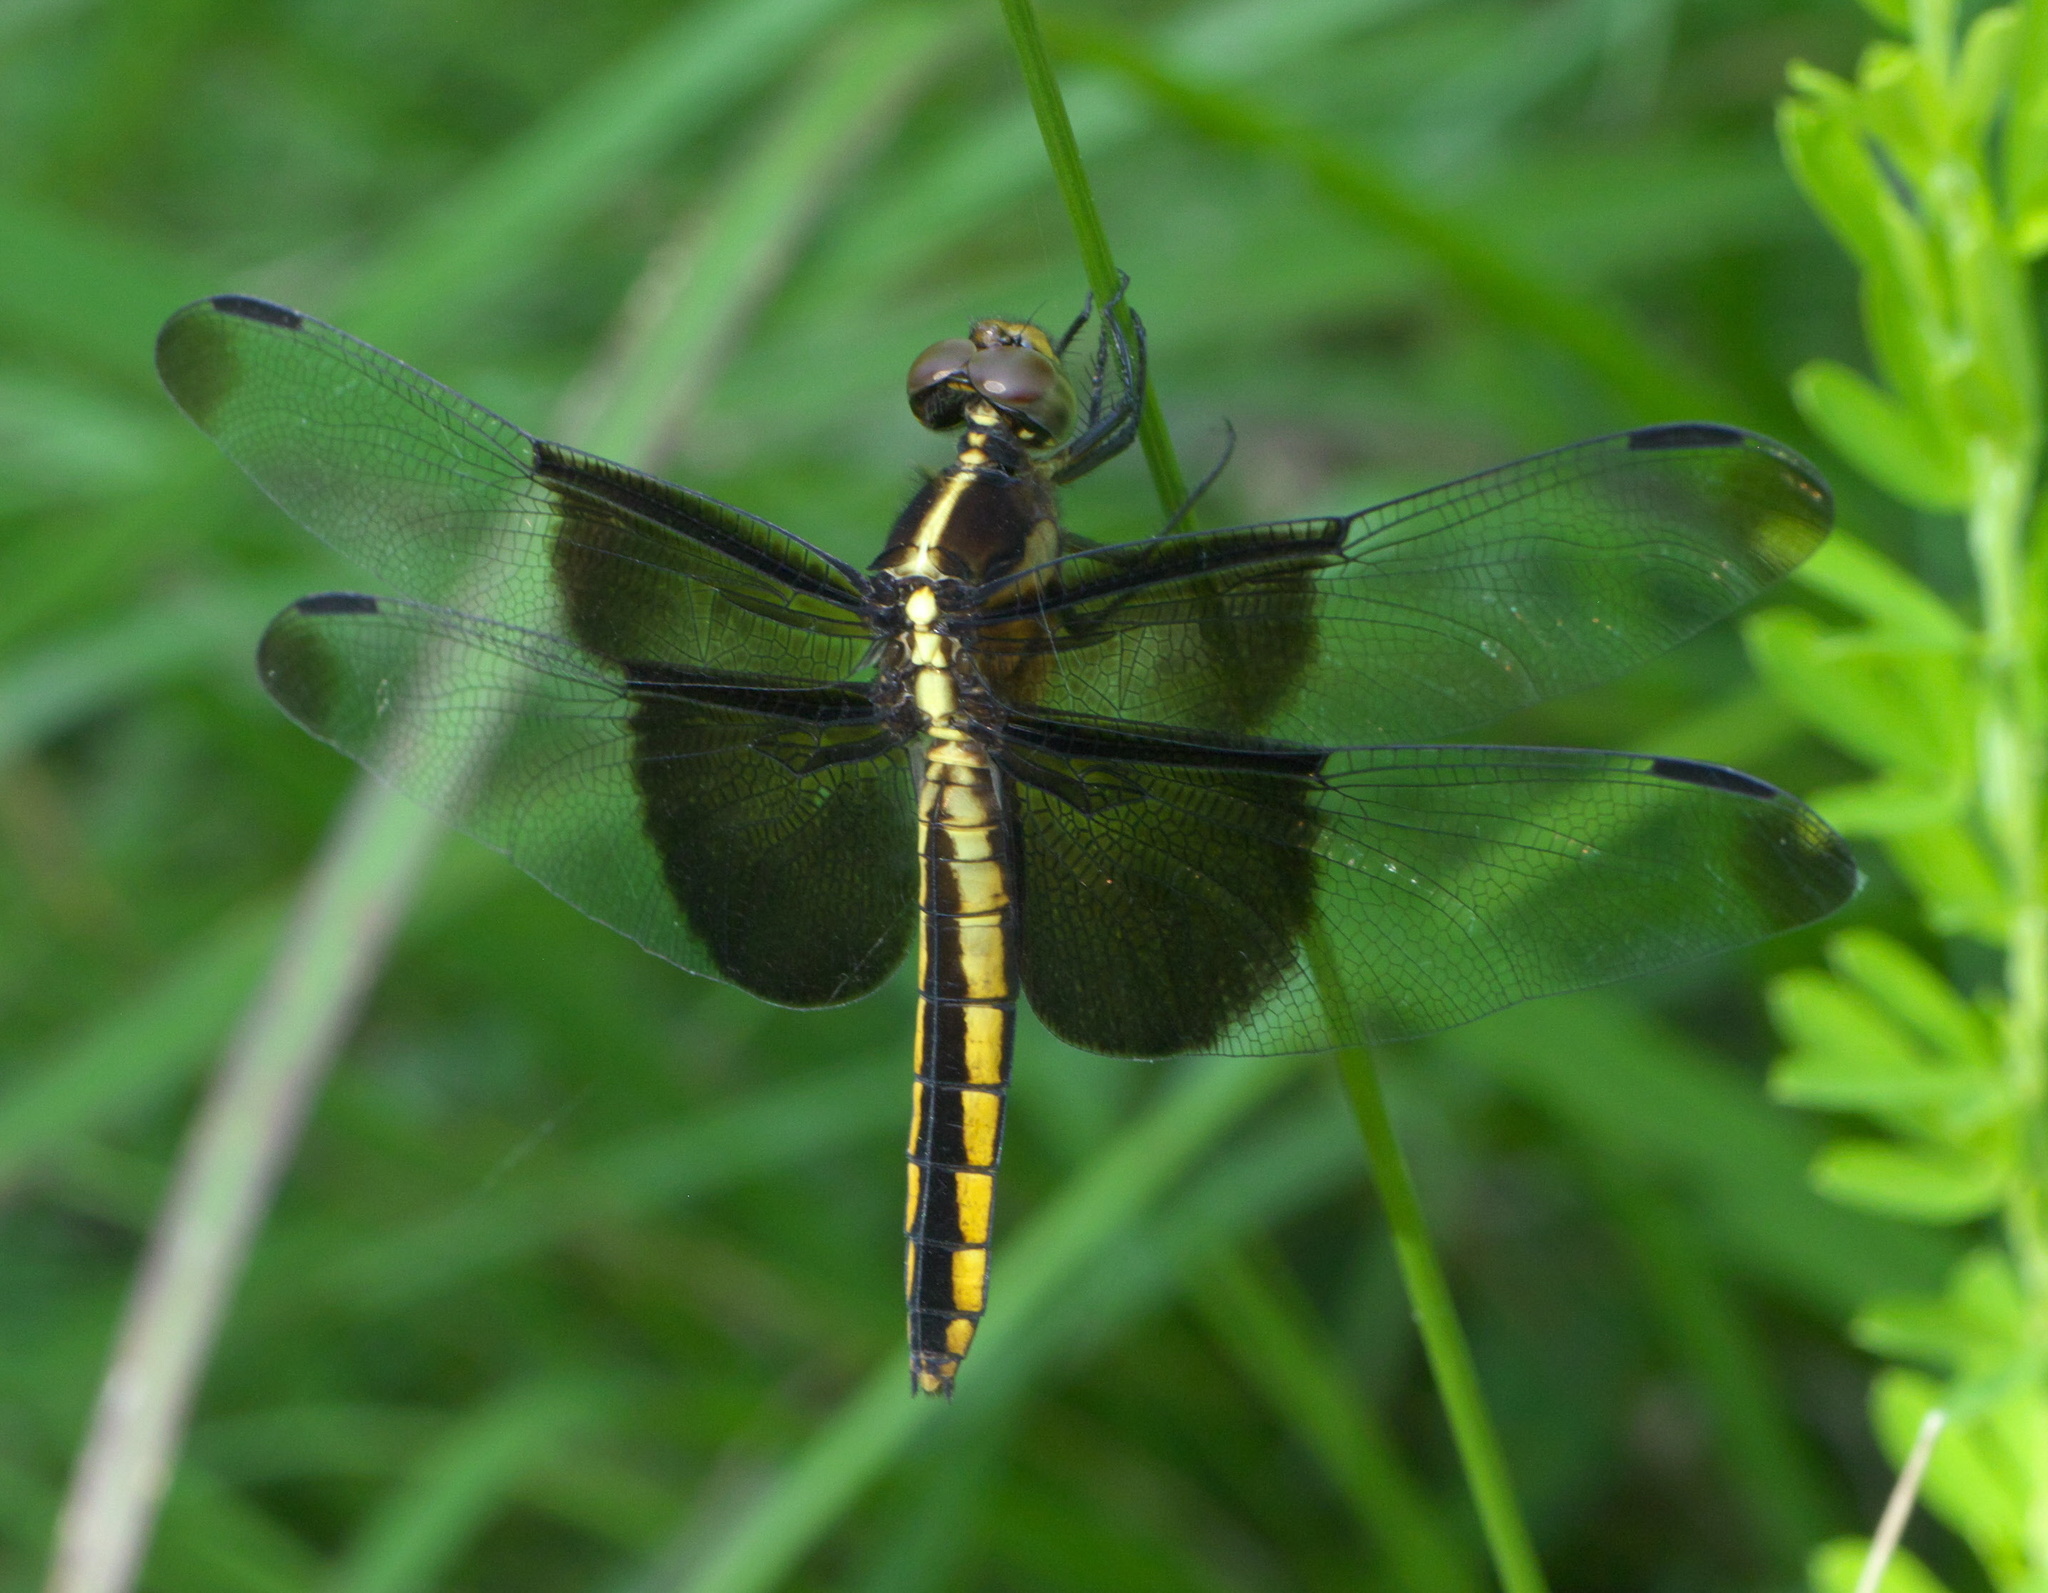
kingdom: Animalia
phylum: Arthropoda
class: Insecta
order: Odonata
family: Libellulidae
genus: Libellula
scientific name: Libellula luctuosa
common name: Widow skimmer
